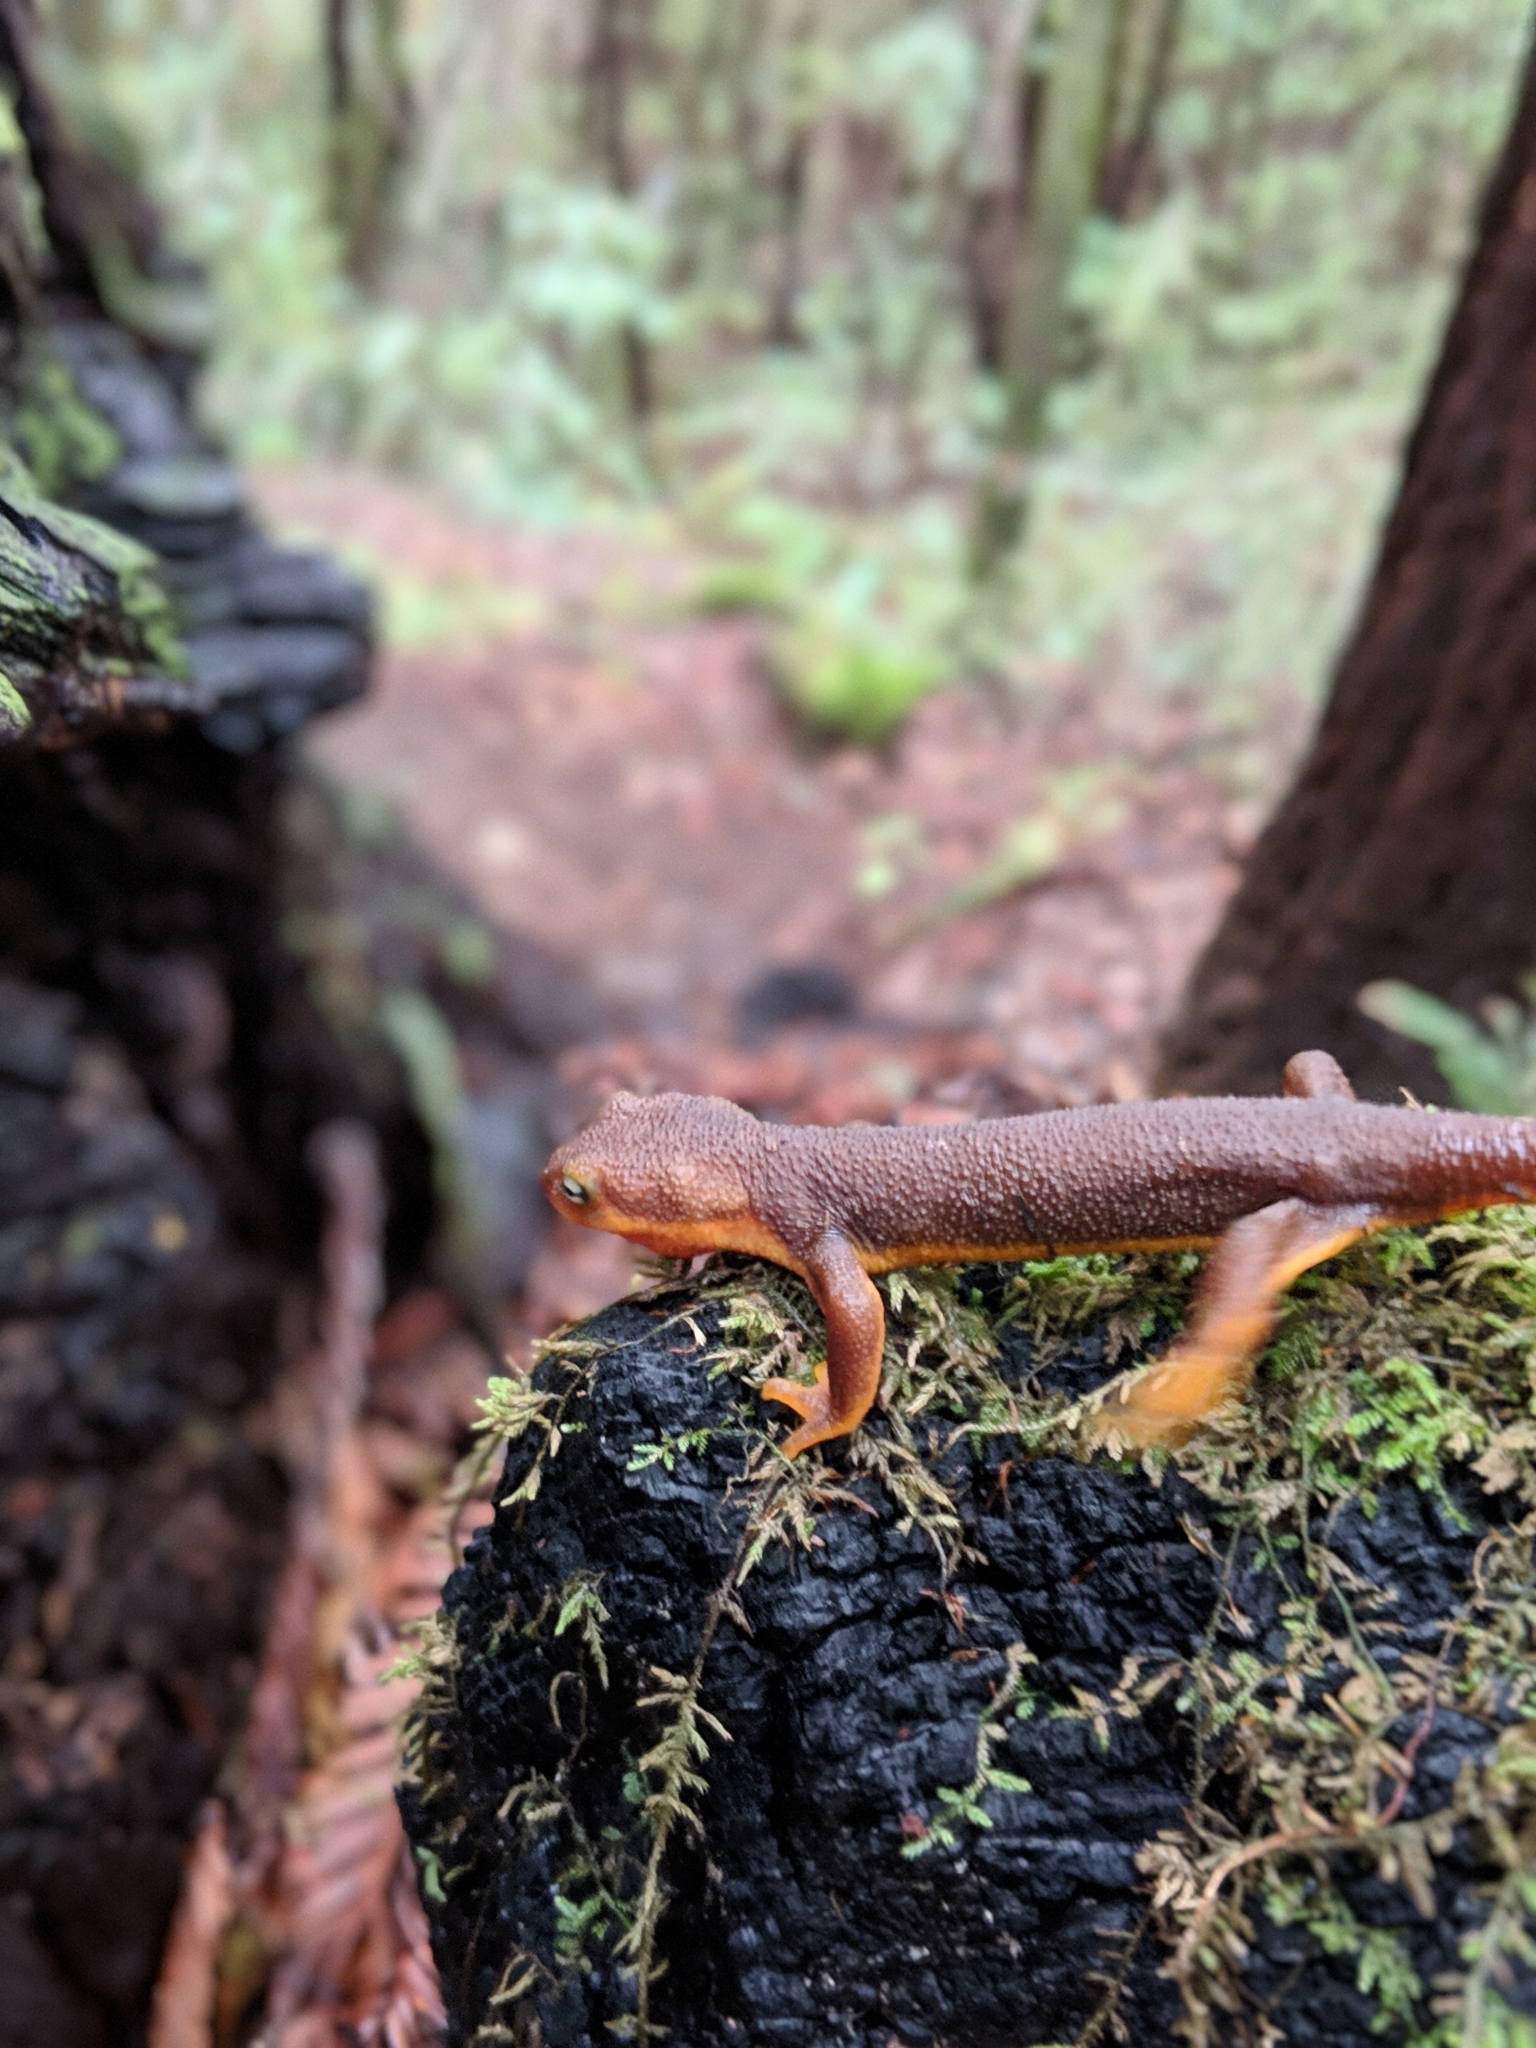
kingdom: Animalia
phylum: Chordata
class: Amphibia
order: Caudata
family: Salamandridae
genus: Taricha
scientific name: Taricha granulosa
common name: Roughskin newt
